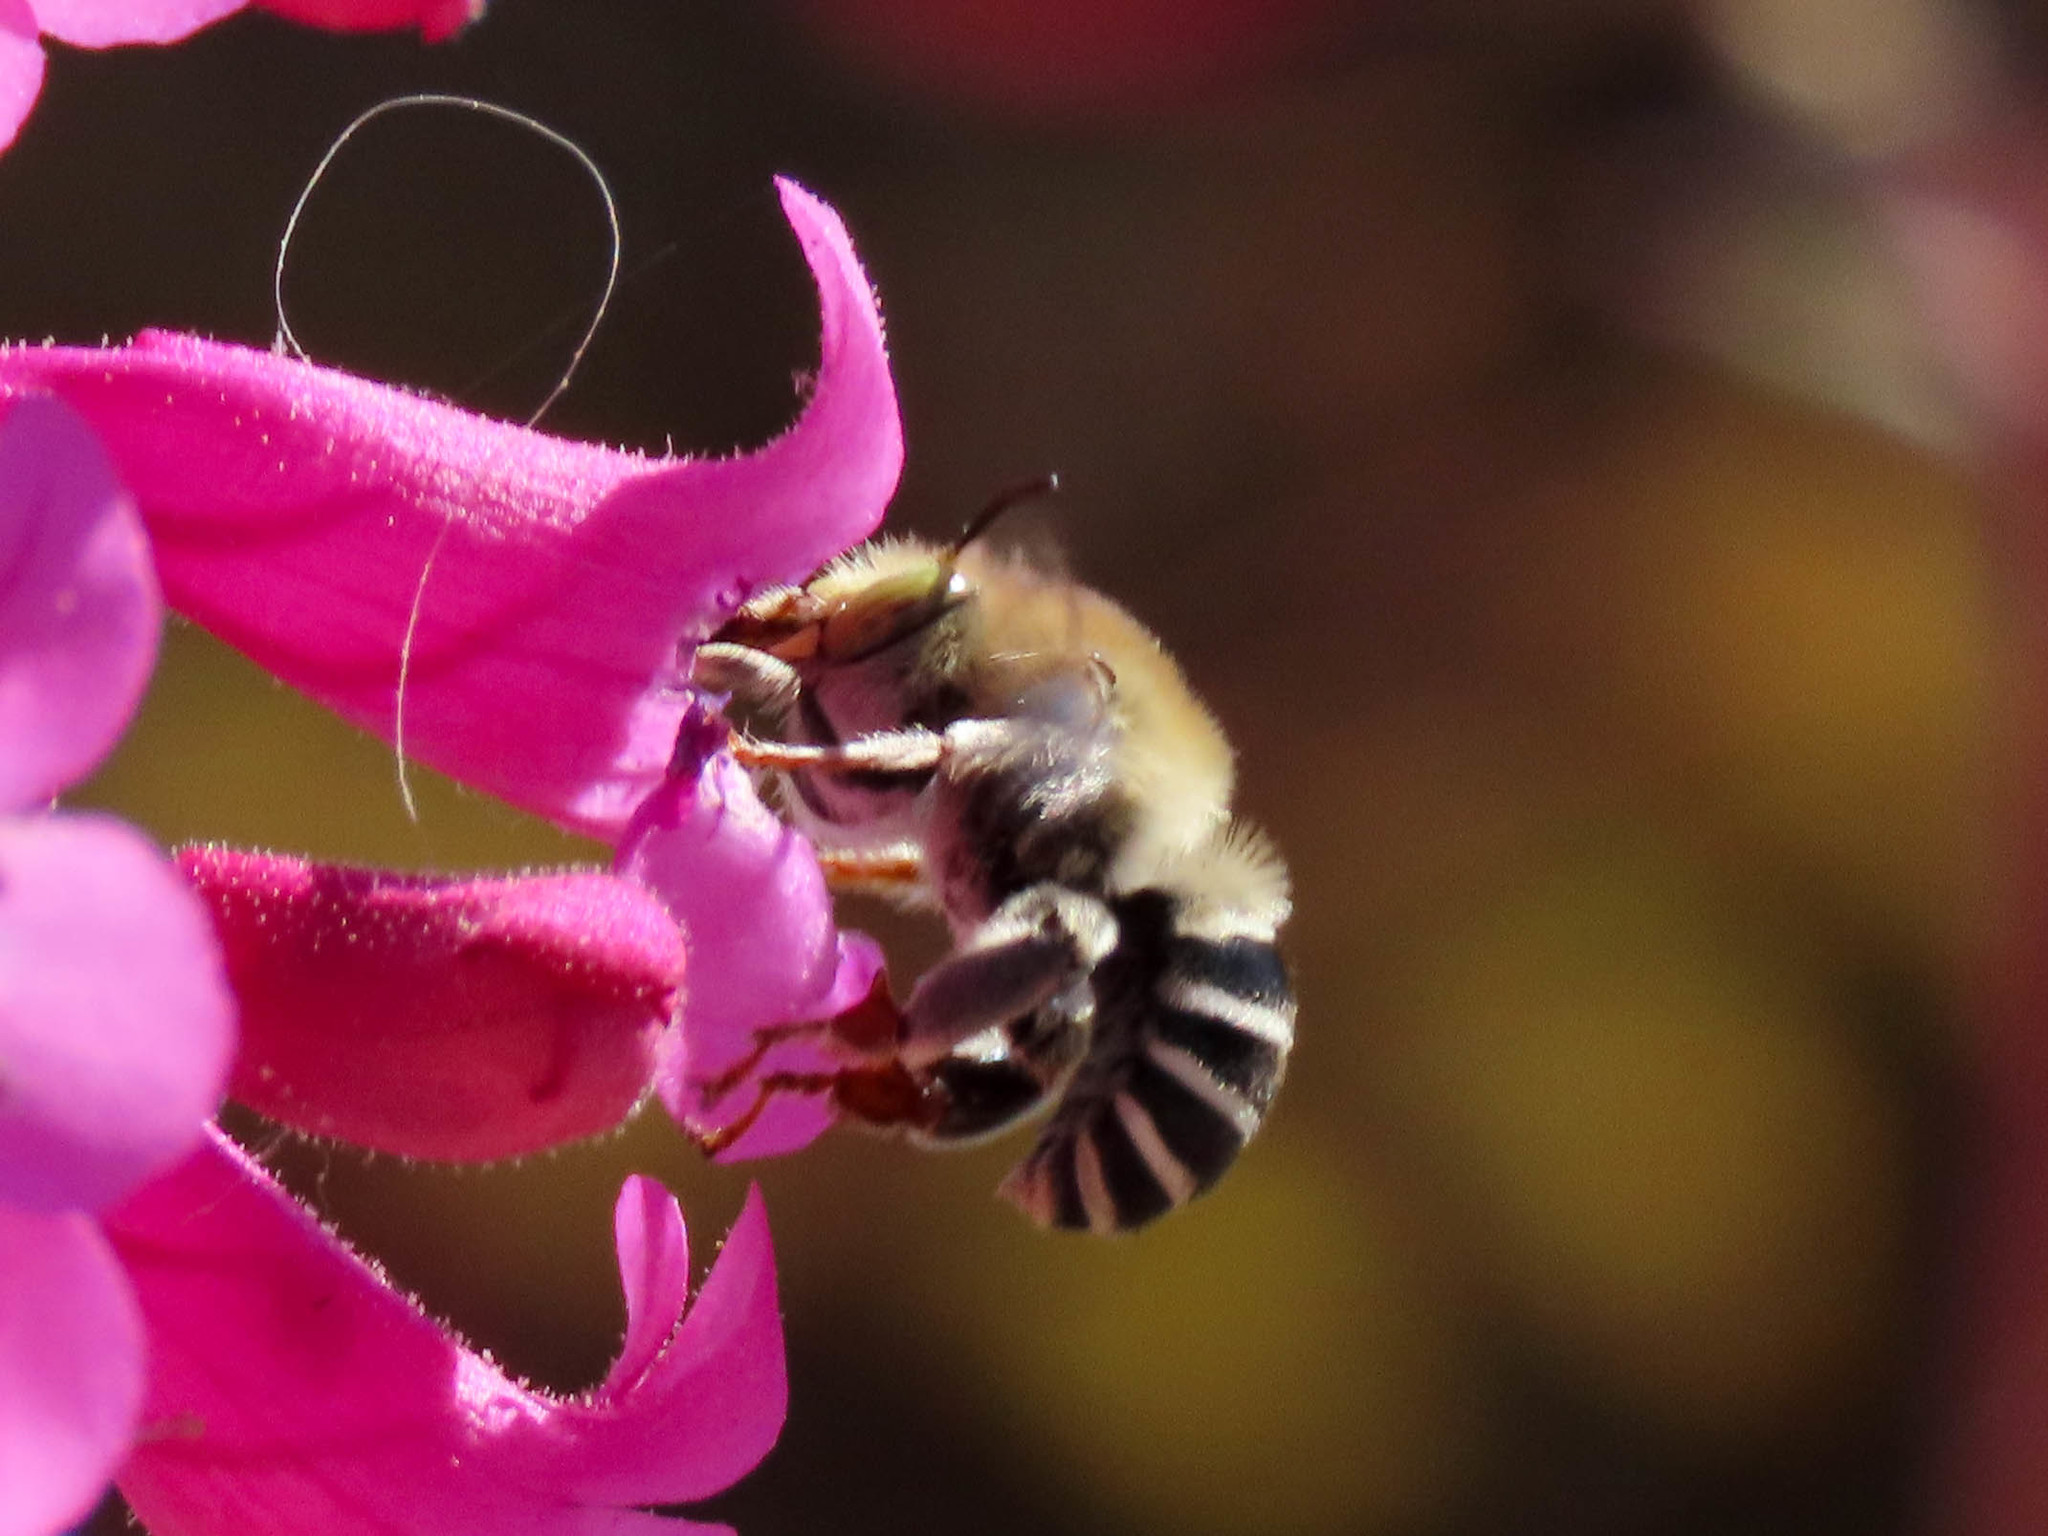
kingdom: Animalia
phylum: Arthropoda
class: Insecta
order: Hymenoptera
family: Apidae
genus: Anthophora
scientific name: Anthophora californica
